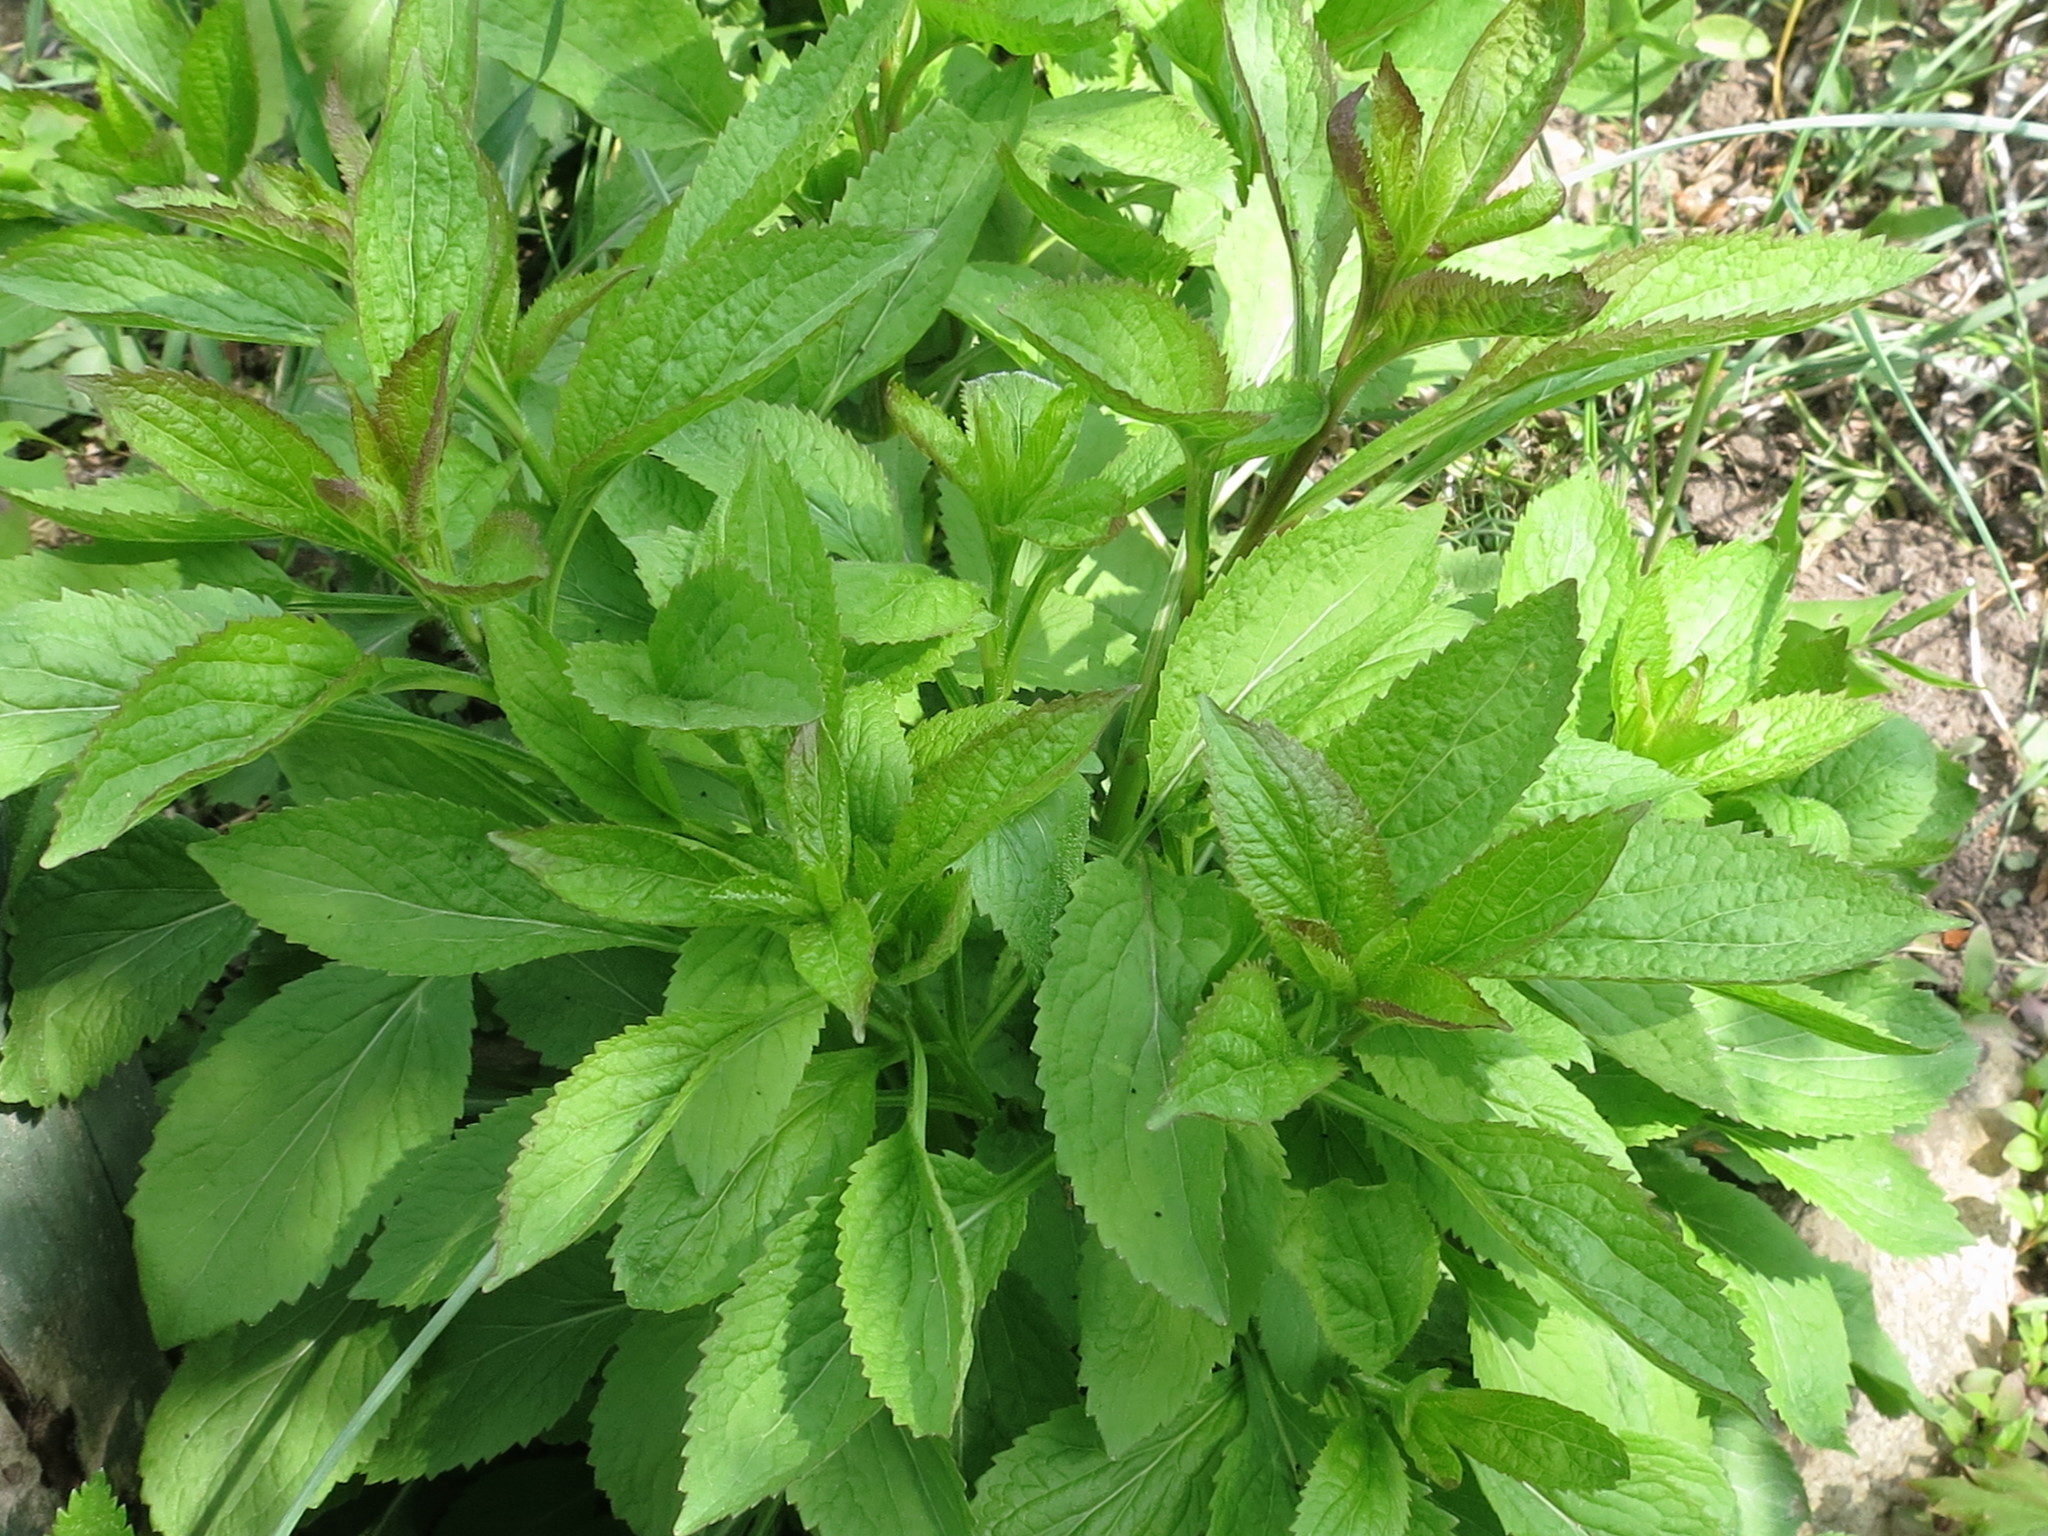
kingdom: Plantae
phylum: Tracheophyta
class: Magnoliopsida
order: Asterales
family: Campanulaceae
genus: Asyneuma
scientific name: Asyneuma japonicum
